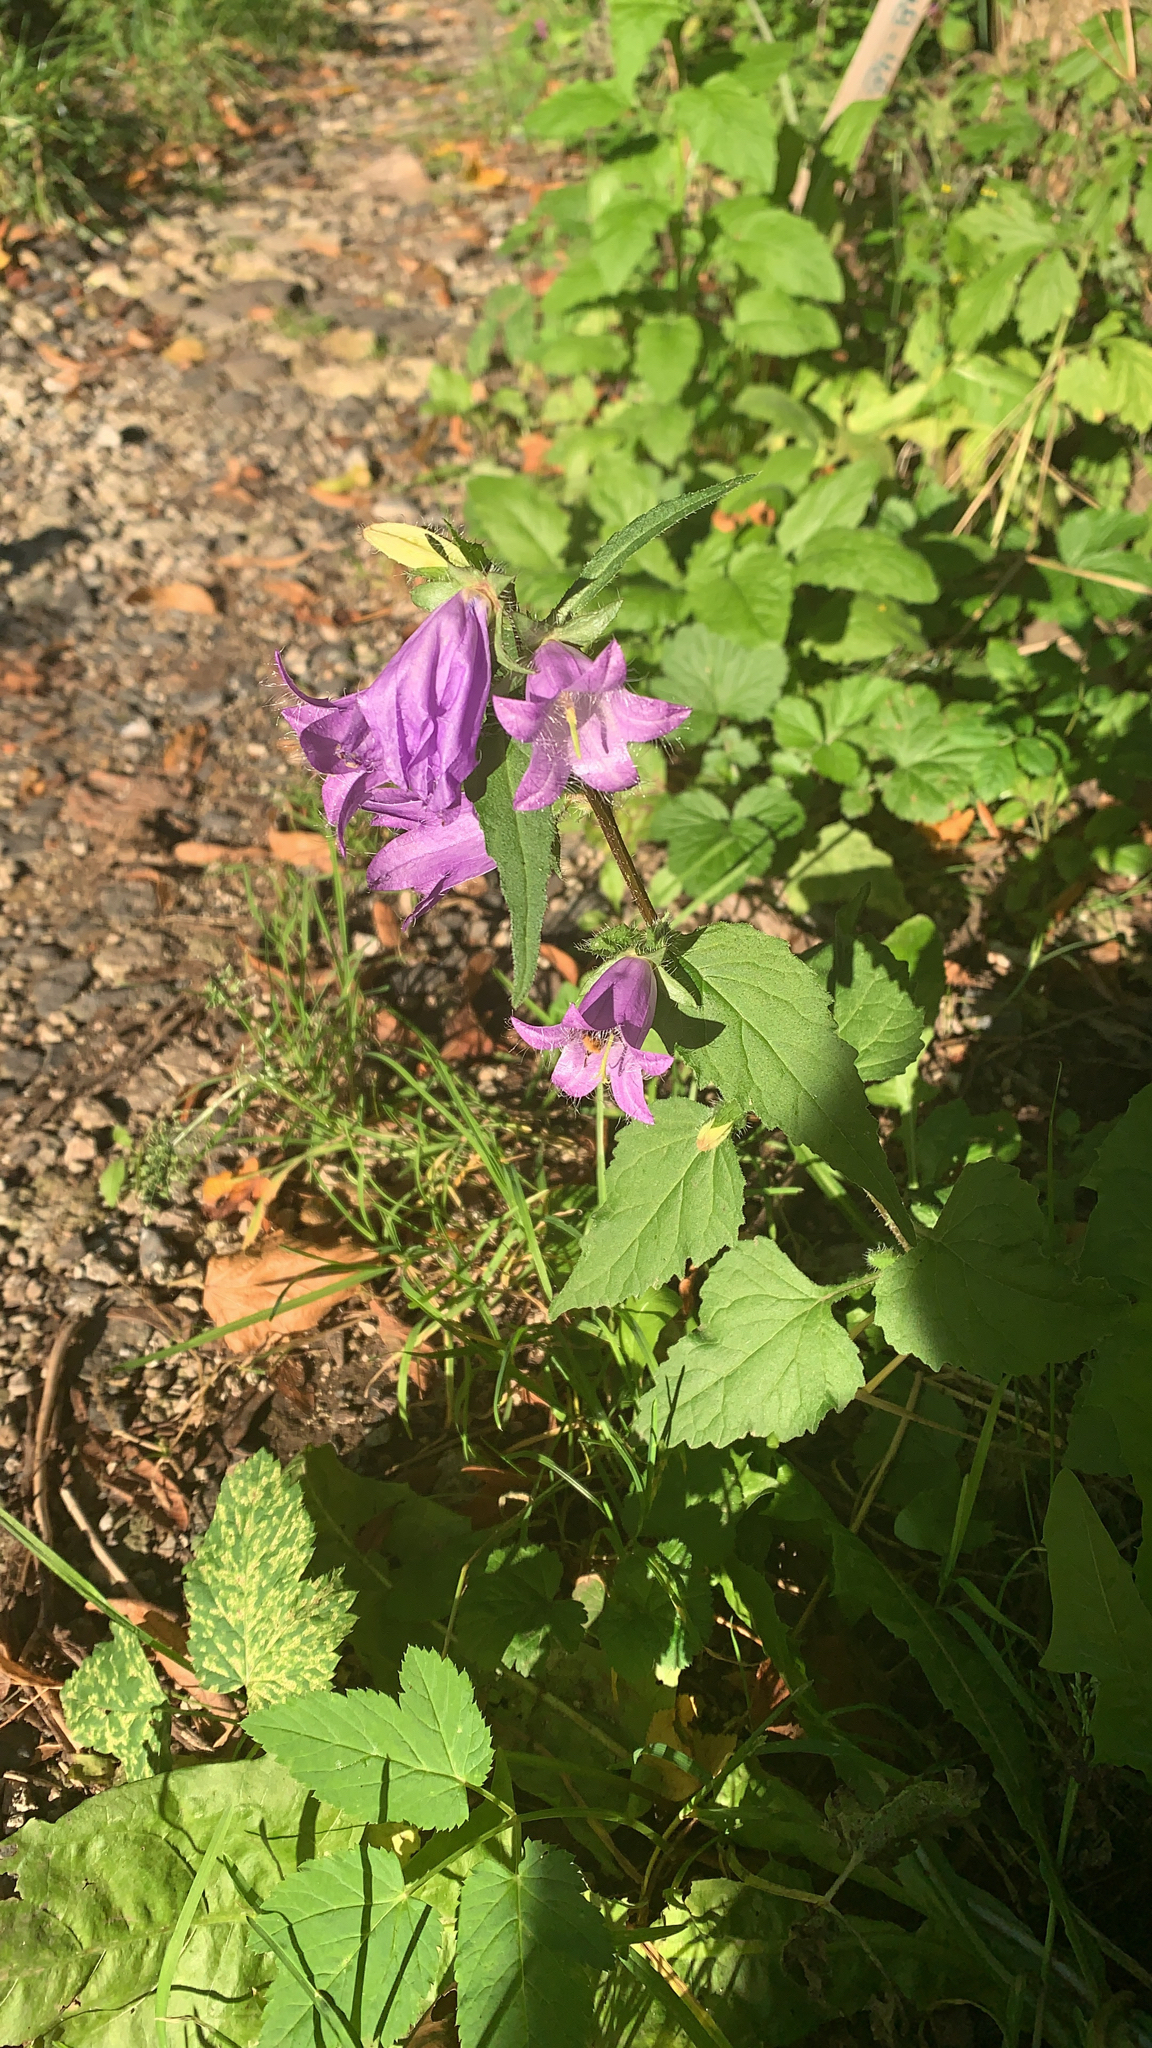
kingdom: Plantae
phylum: Tracheophyta
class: Magnoliopsida
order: Asterales
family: Campanulaceae
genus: Campanula
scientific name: Campanula trachelium
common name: Nettle-leaved bellflower
